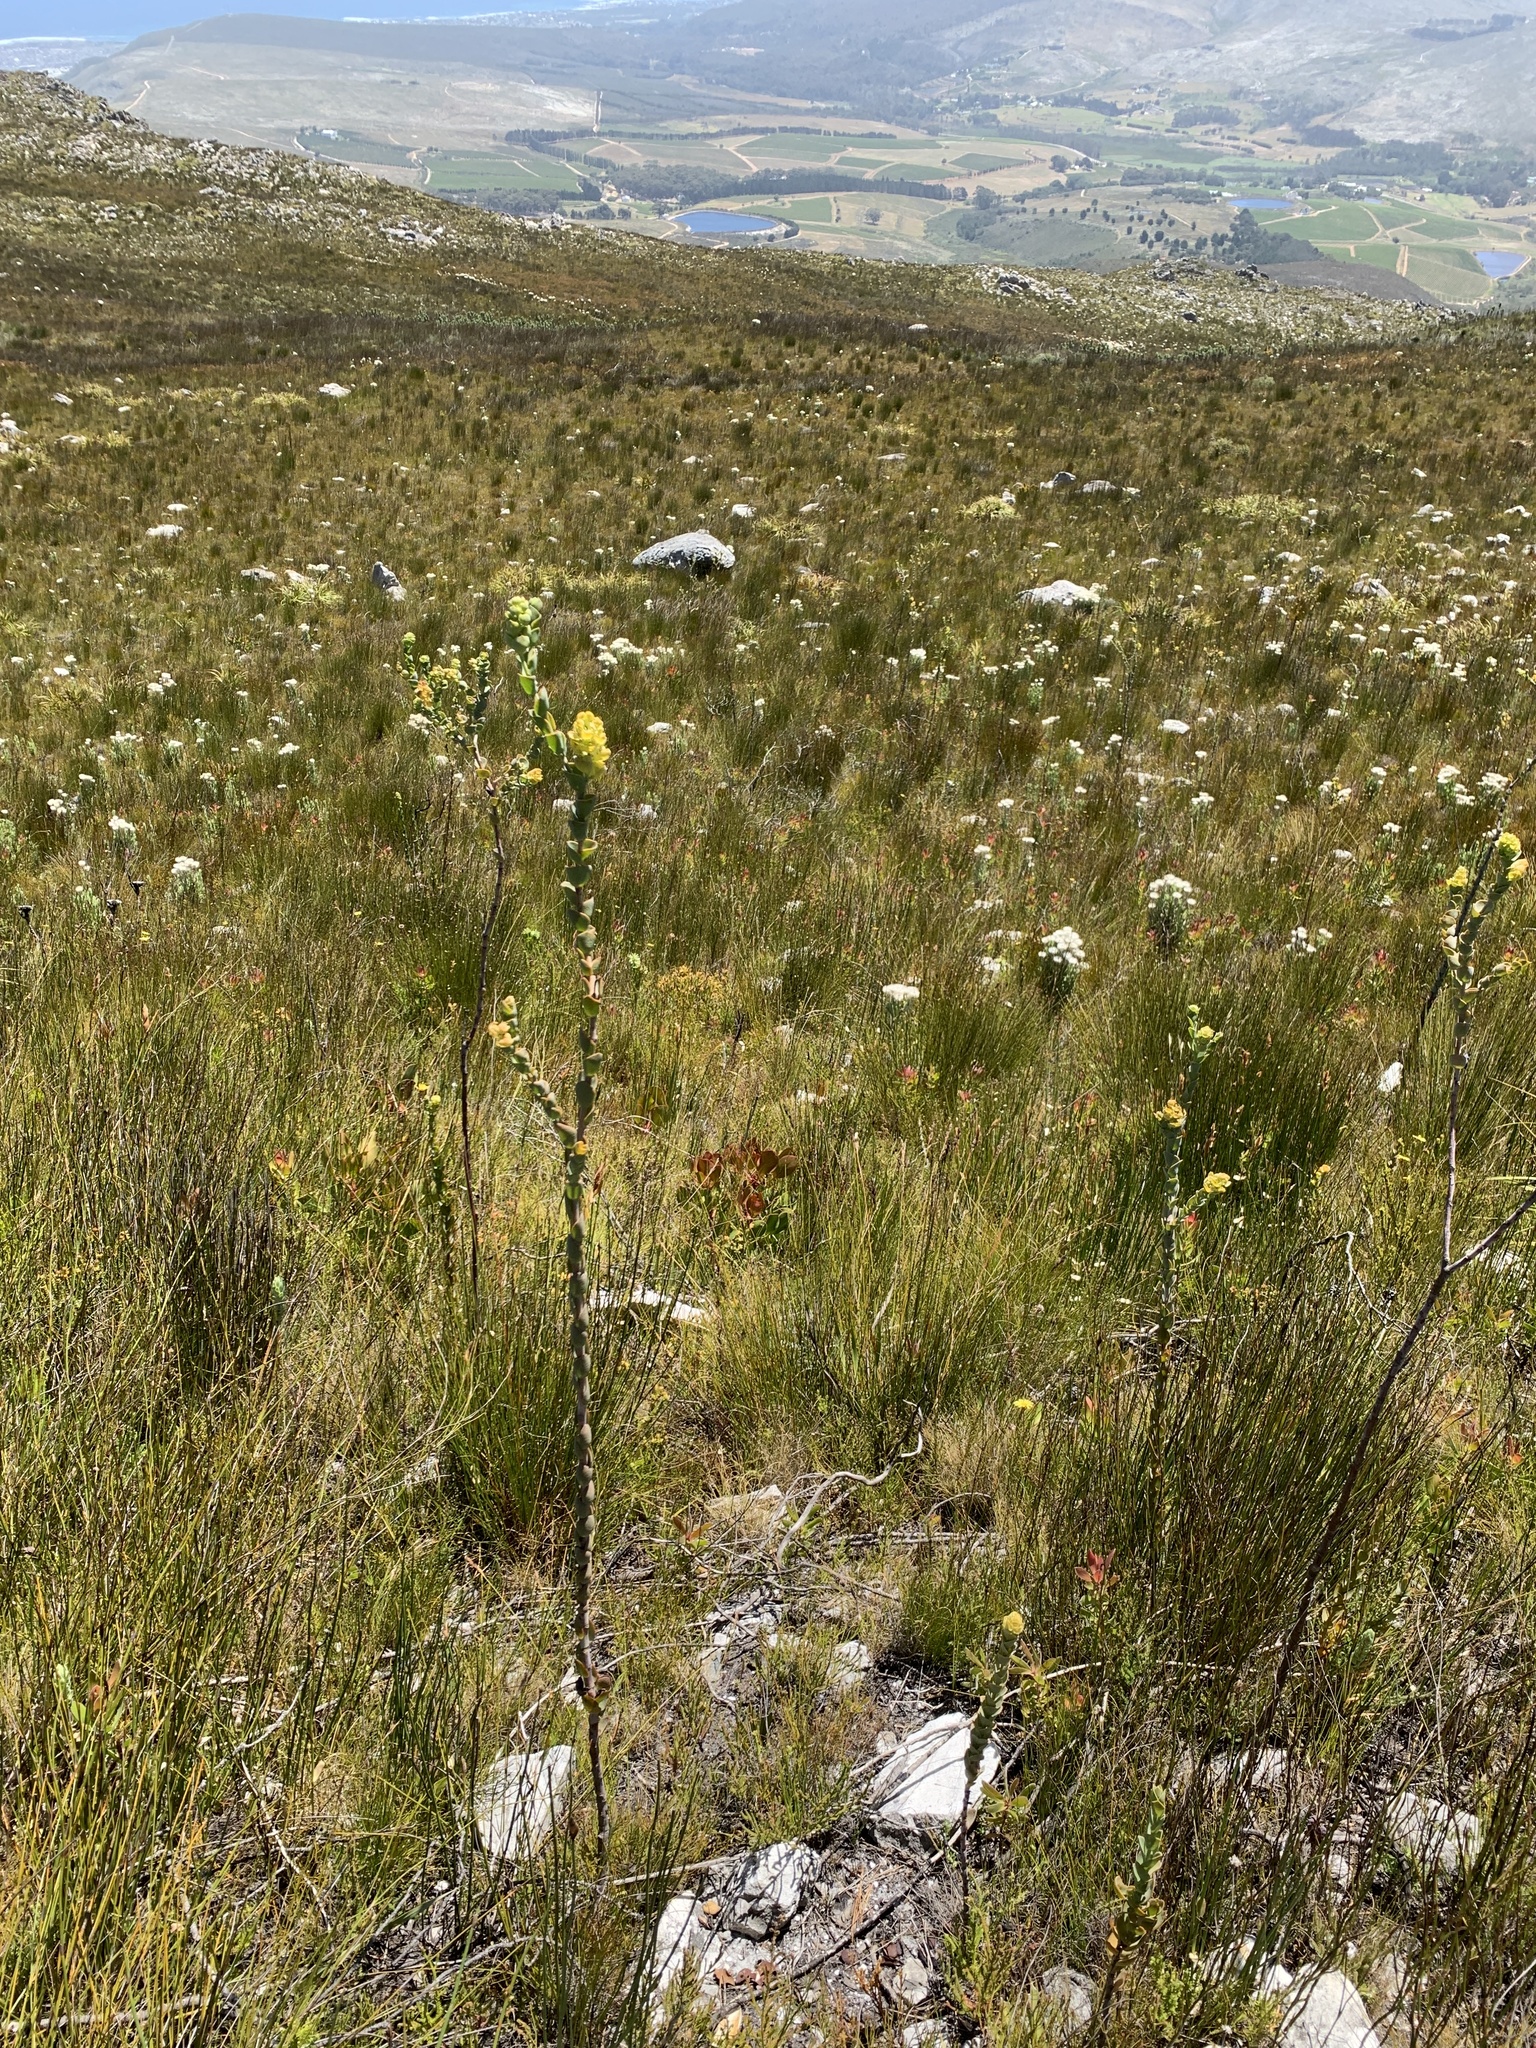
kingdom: Plantae
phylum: Tracheophyta
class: Magnoliopsida
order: Santalales
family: Thesiaceae
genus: Thesium
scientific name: Thesium euphorbioides
